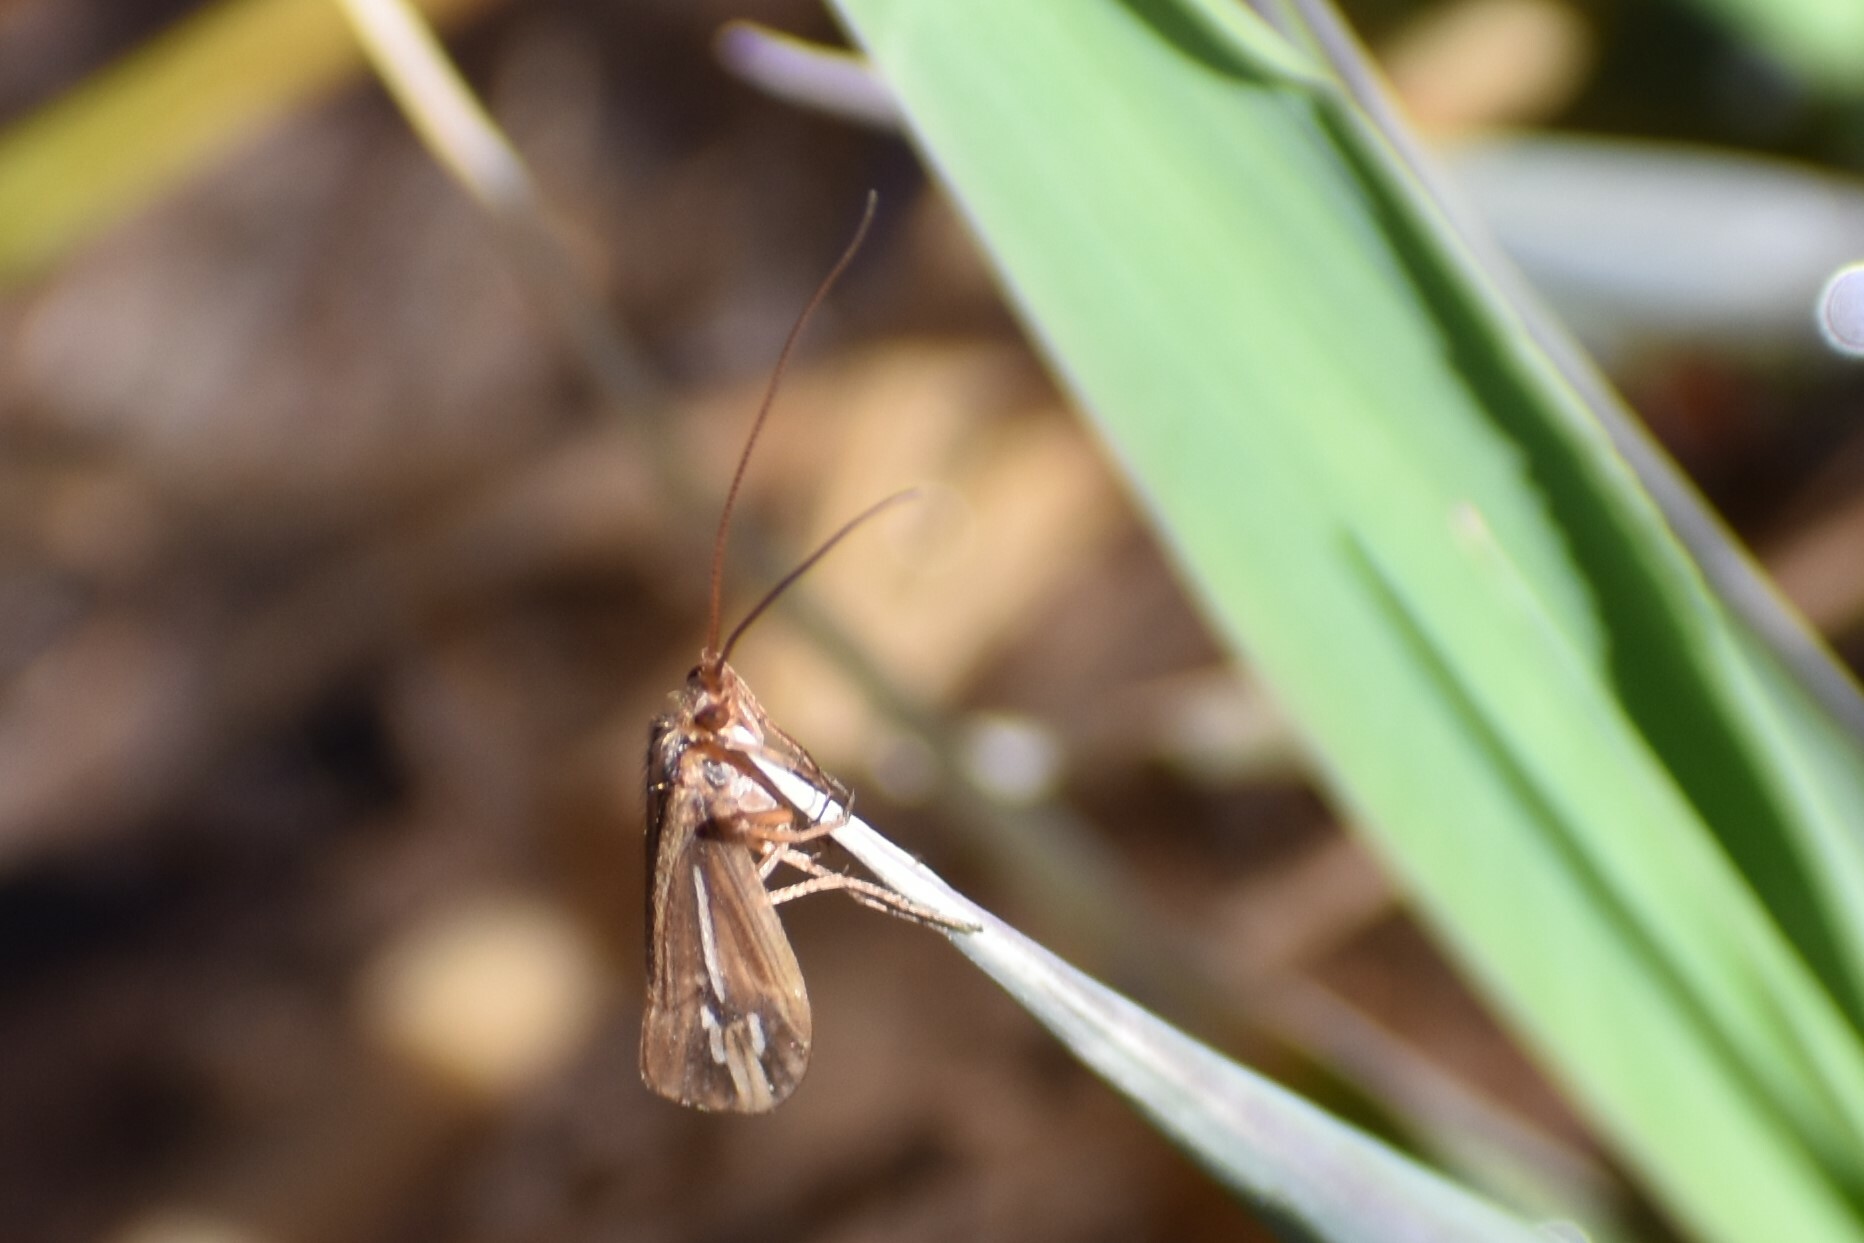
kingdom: Animalia
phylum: Arthropoda
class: Insecta
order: Trichoptera
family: Limnephilidae
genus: Hesperophylax
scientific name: Hesperophylax designatus
